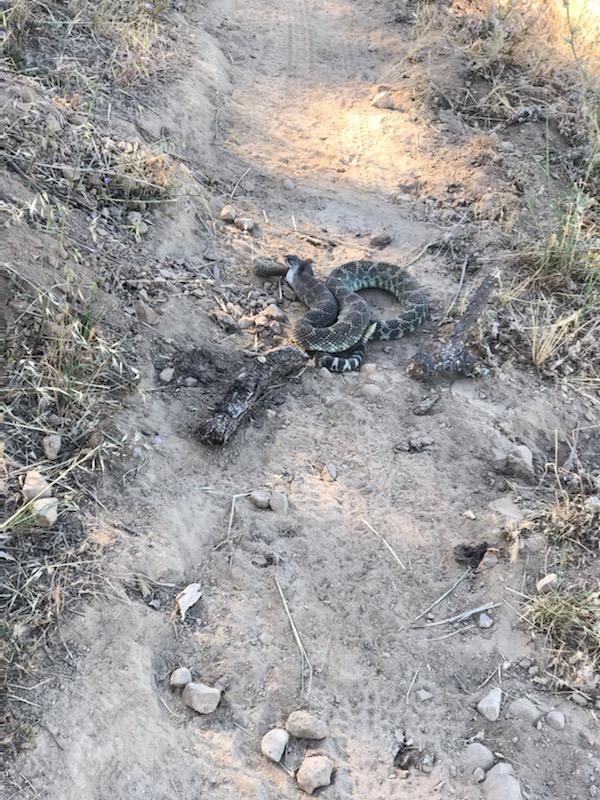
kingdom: Animalia
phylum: Chordata
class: Squamata
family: Viperidae
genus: Crotalus
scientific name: Crotalus oreganus
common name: Abyssus
